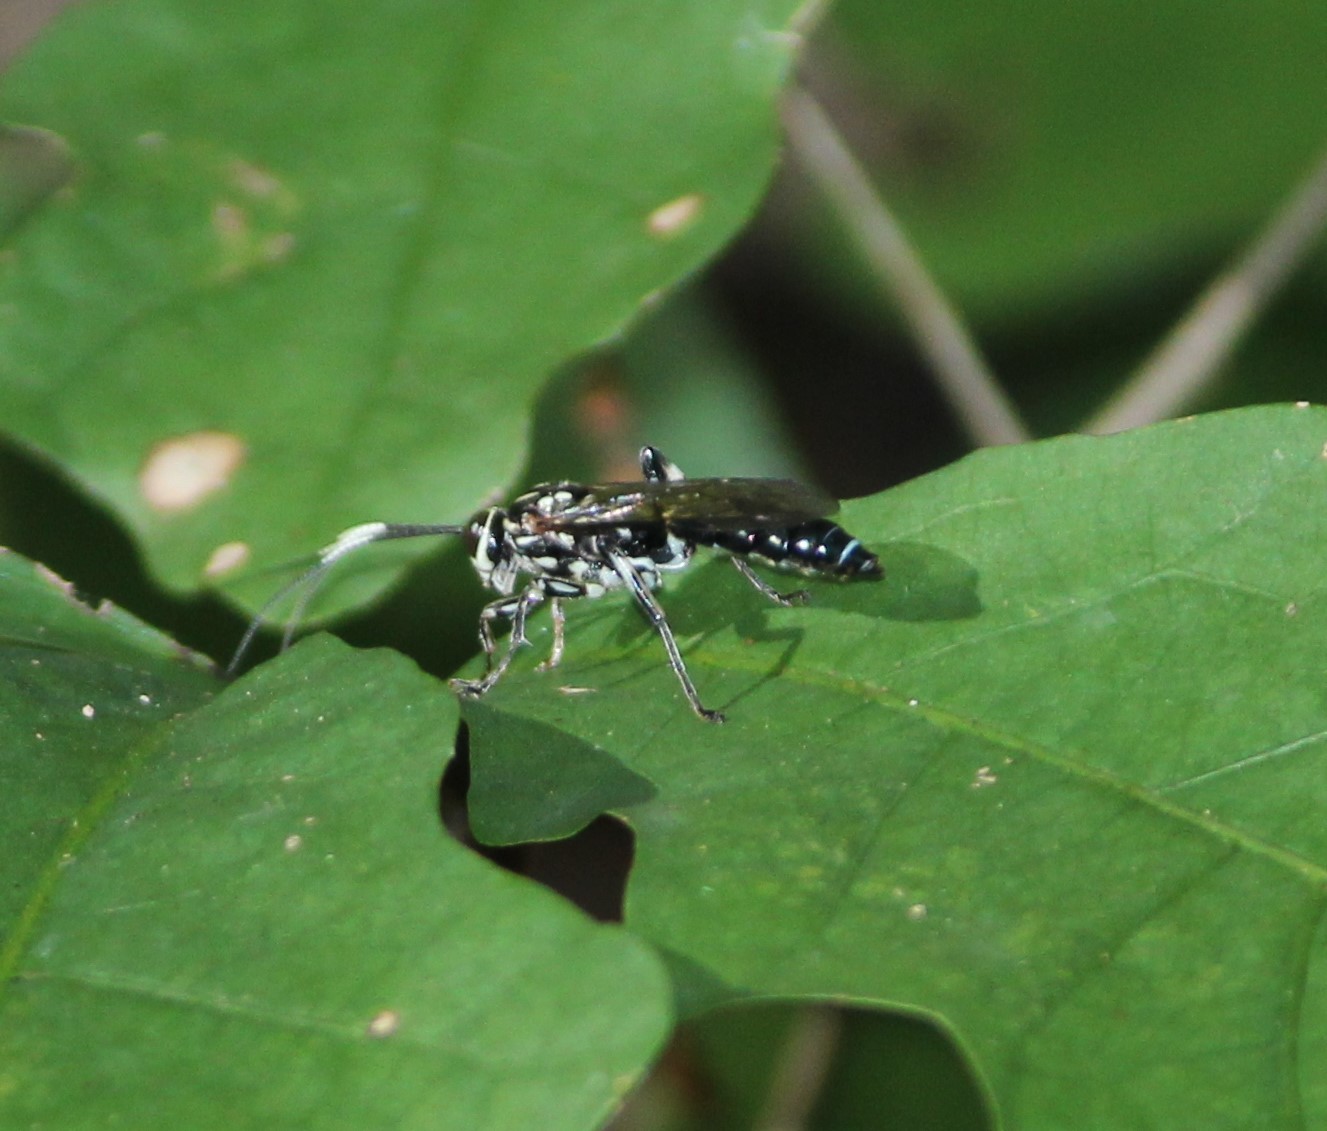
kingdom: Animalia
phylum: Arthropoda
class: Insecta
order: Hymenoptera
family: Ichneumonidae
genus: Coelichneumon
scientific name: Coelichneumon pulcher
